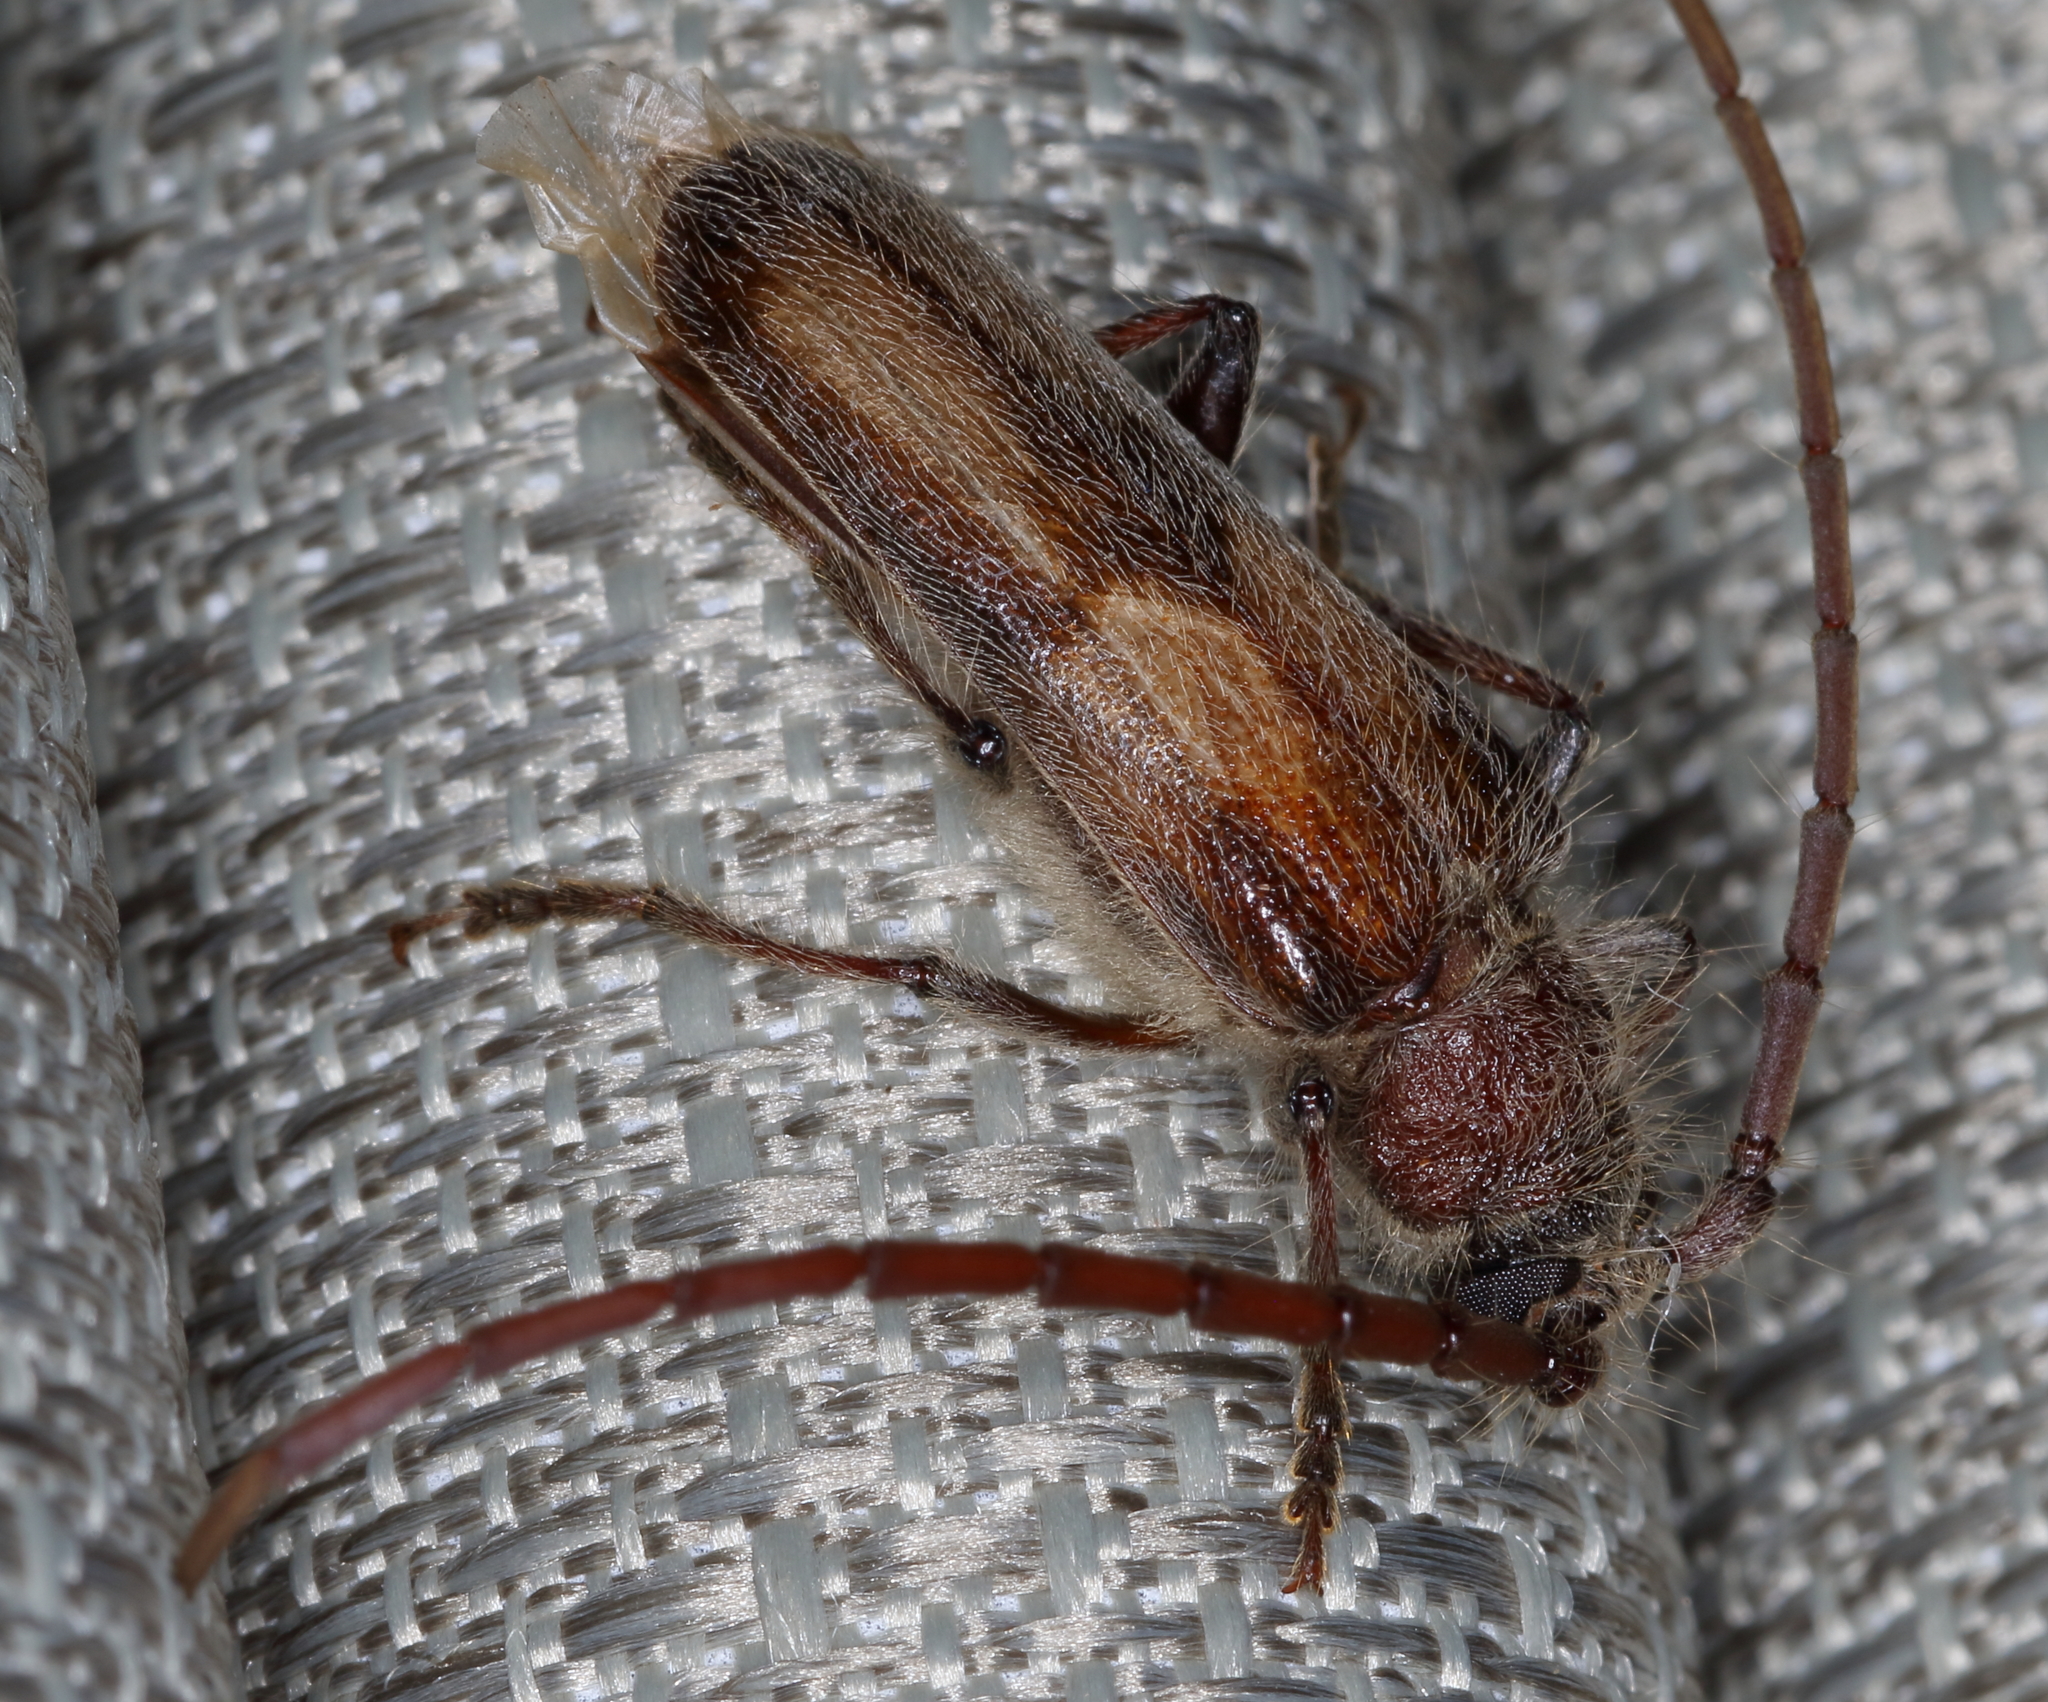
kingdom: Animalia
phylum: Arthropoda
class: Insecta
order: Coleoptera
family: Cerambycidae
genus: Crinarnoldius
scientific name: Crinarnoldius maculatus
